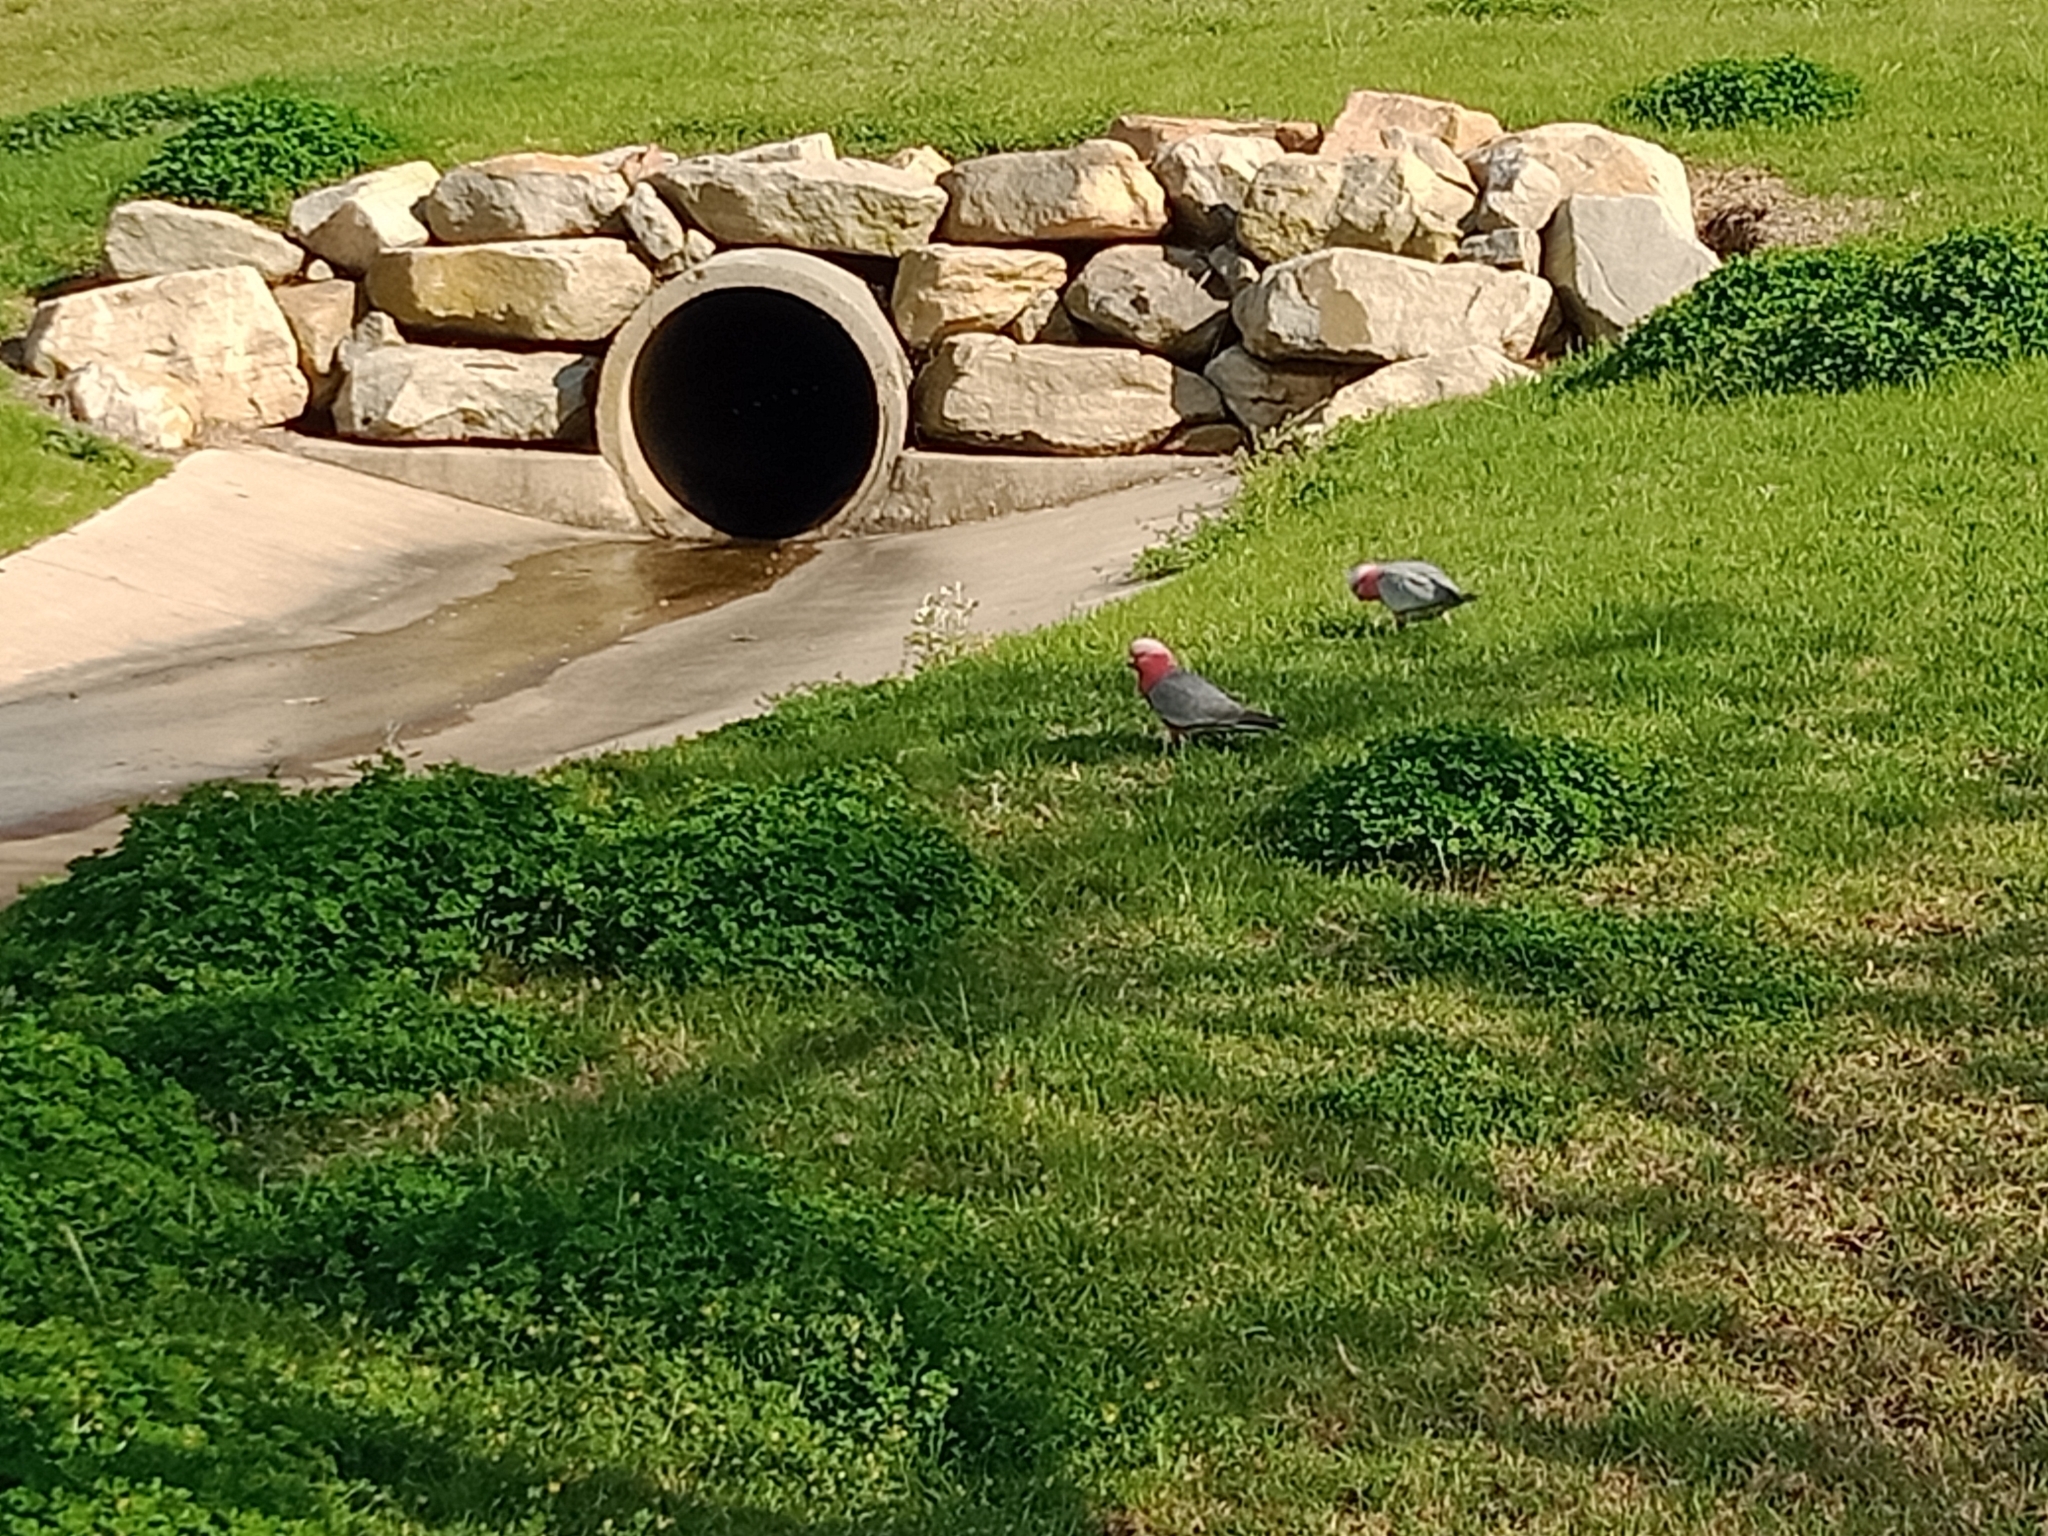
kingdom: Animalia
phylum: Chordata
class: Aves
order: Psittaciformes
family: Psittacidae
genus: Eolophus
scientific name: Eolophus roseicapilla
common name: Galah
